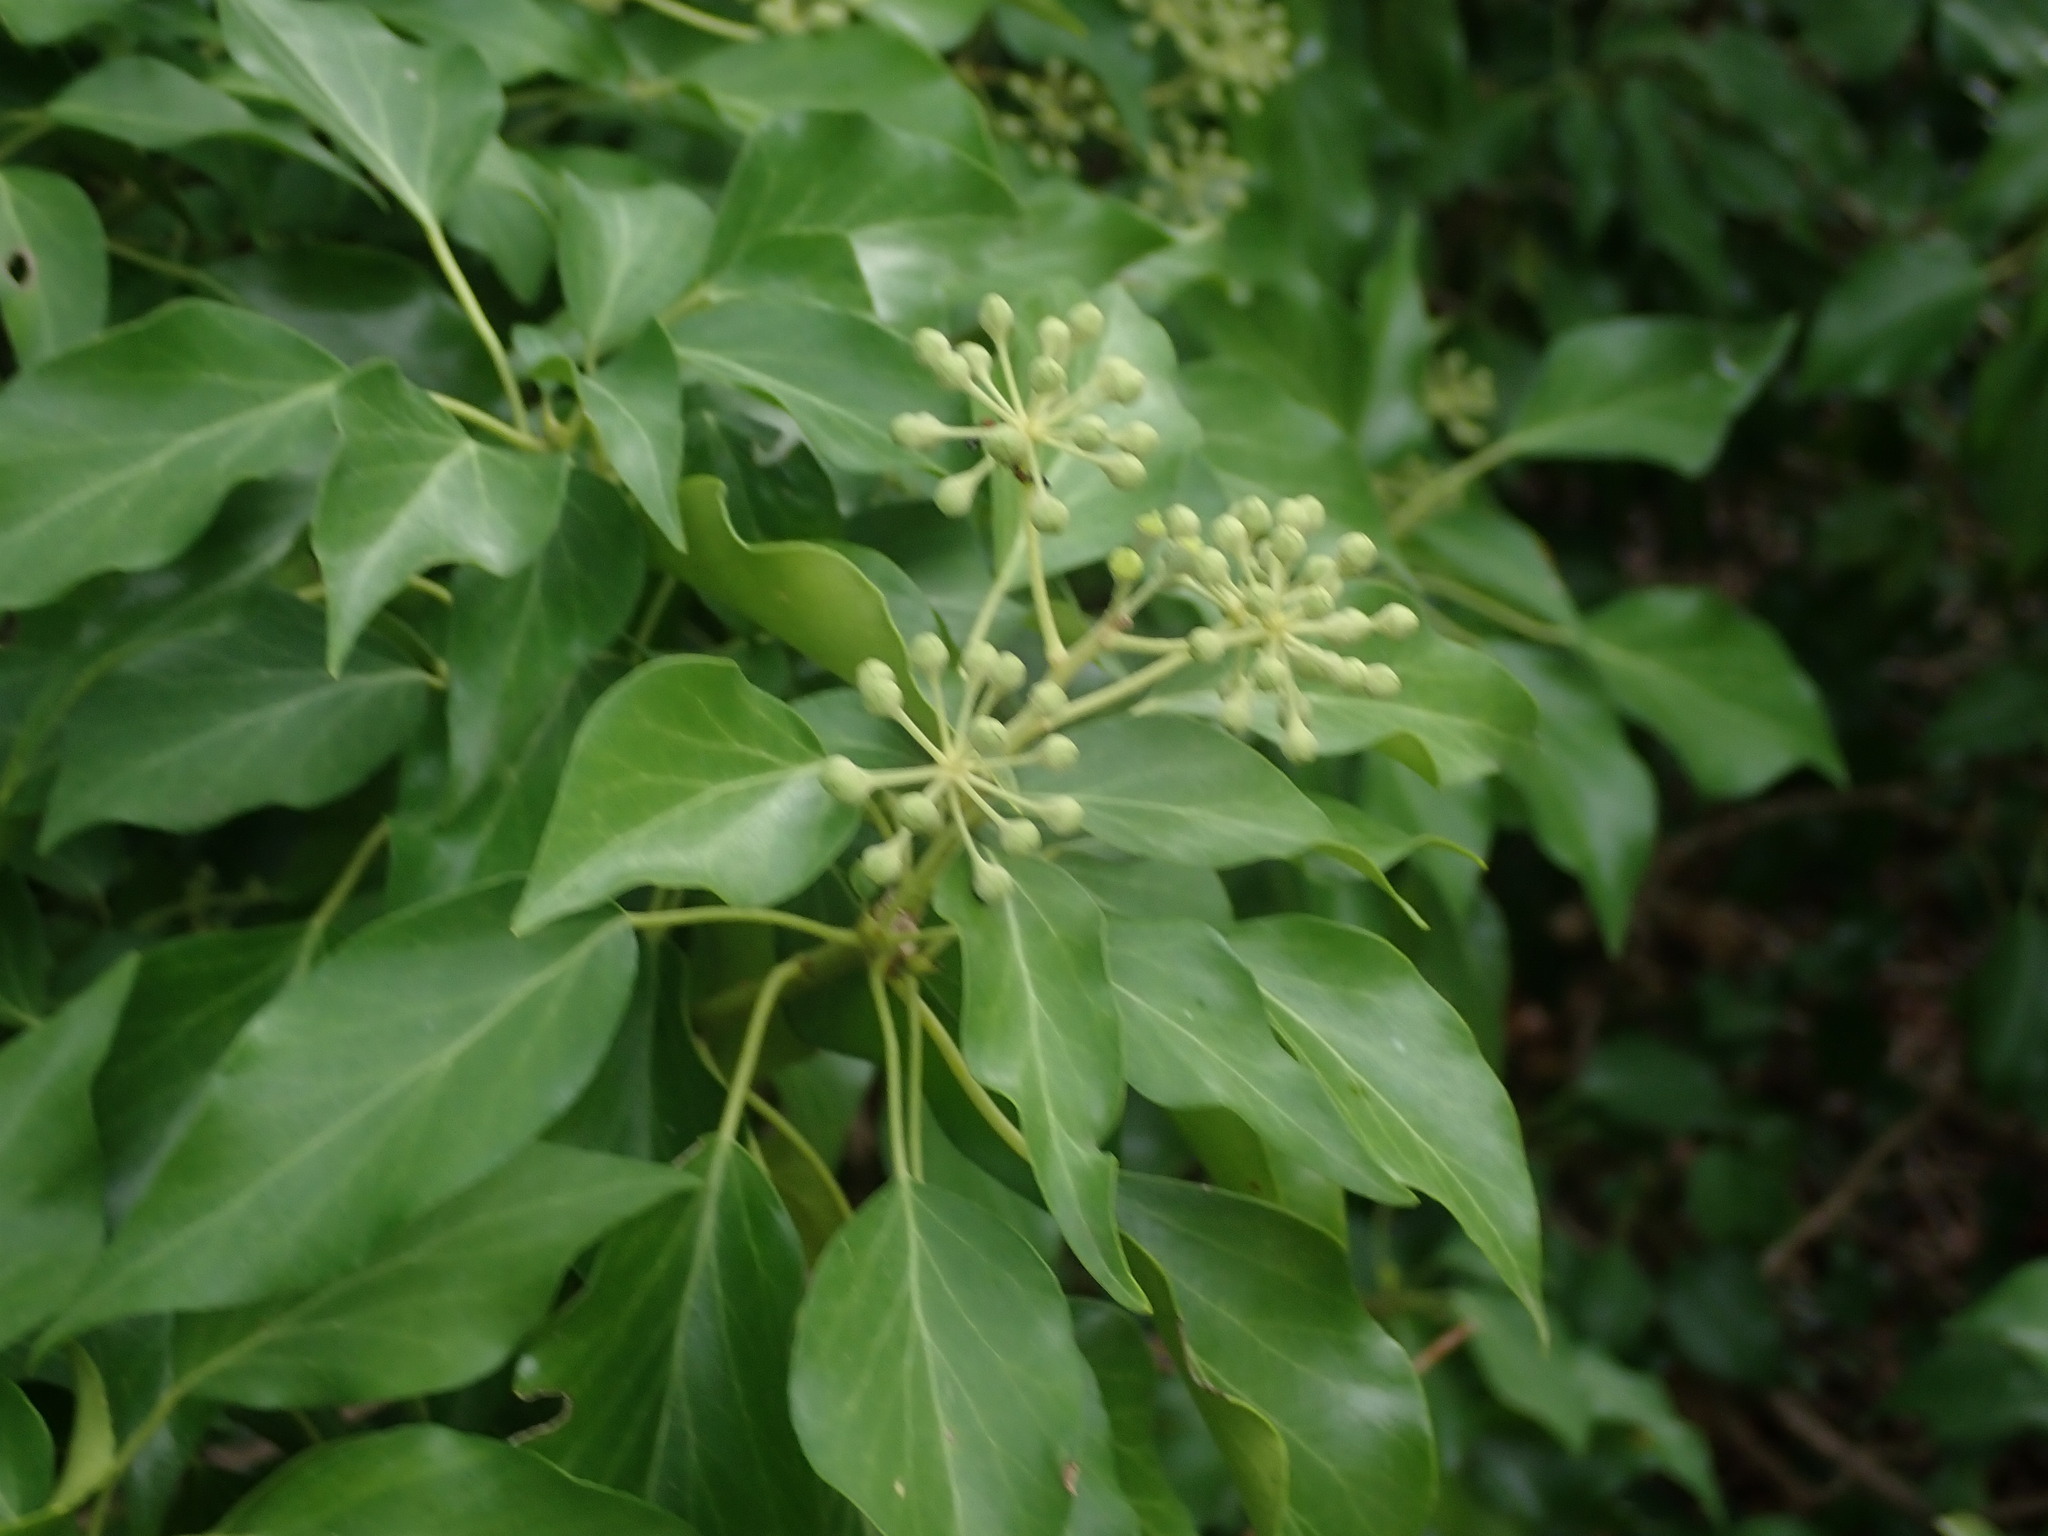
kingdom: Plantae
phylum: Tracheophyta
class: Magnoliopsida
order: Apiales
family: Araliaceae
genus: Hedera
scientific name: Hedera helix
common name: Ivy
